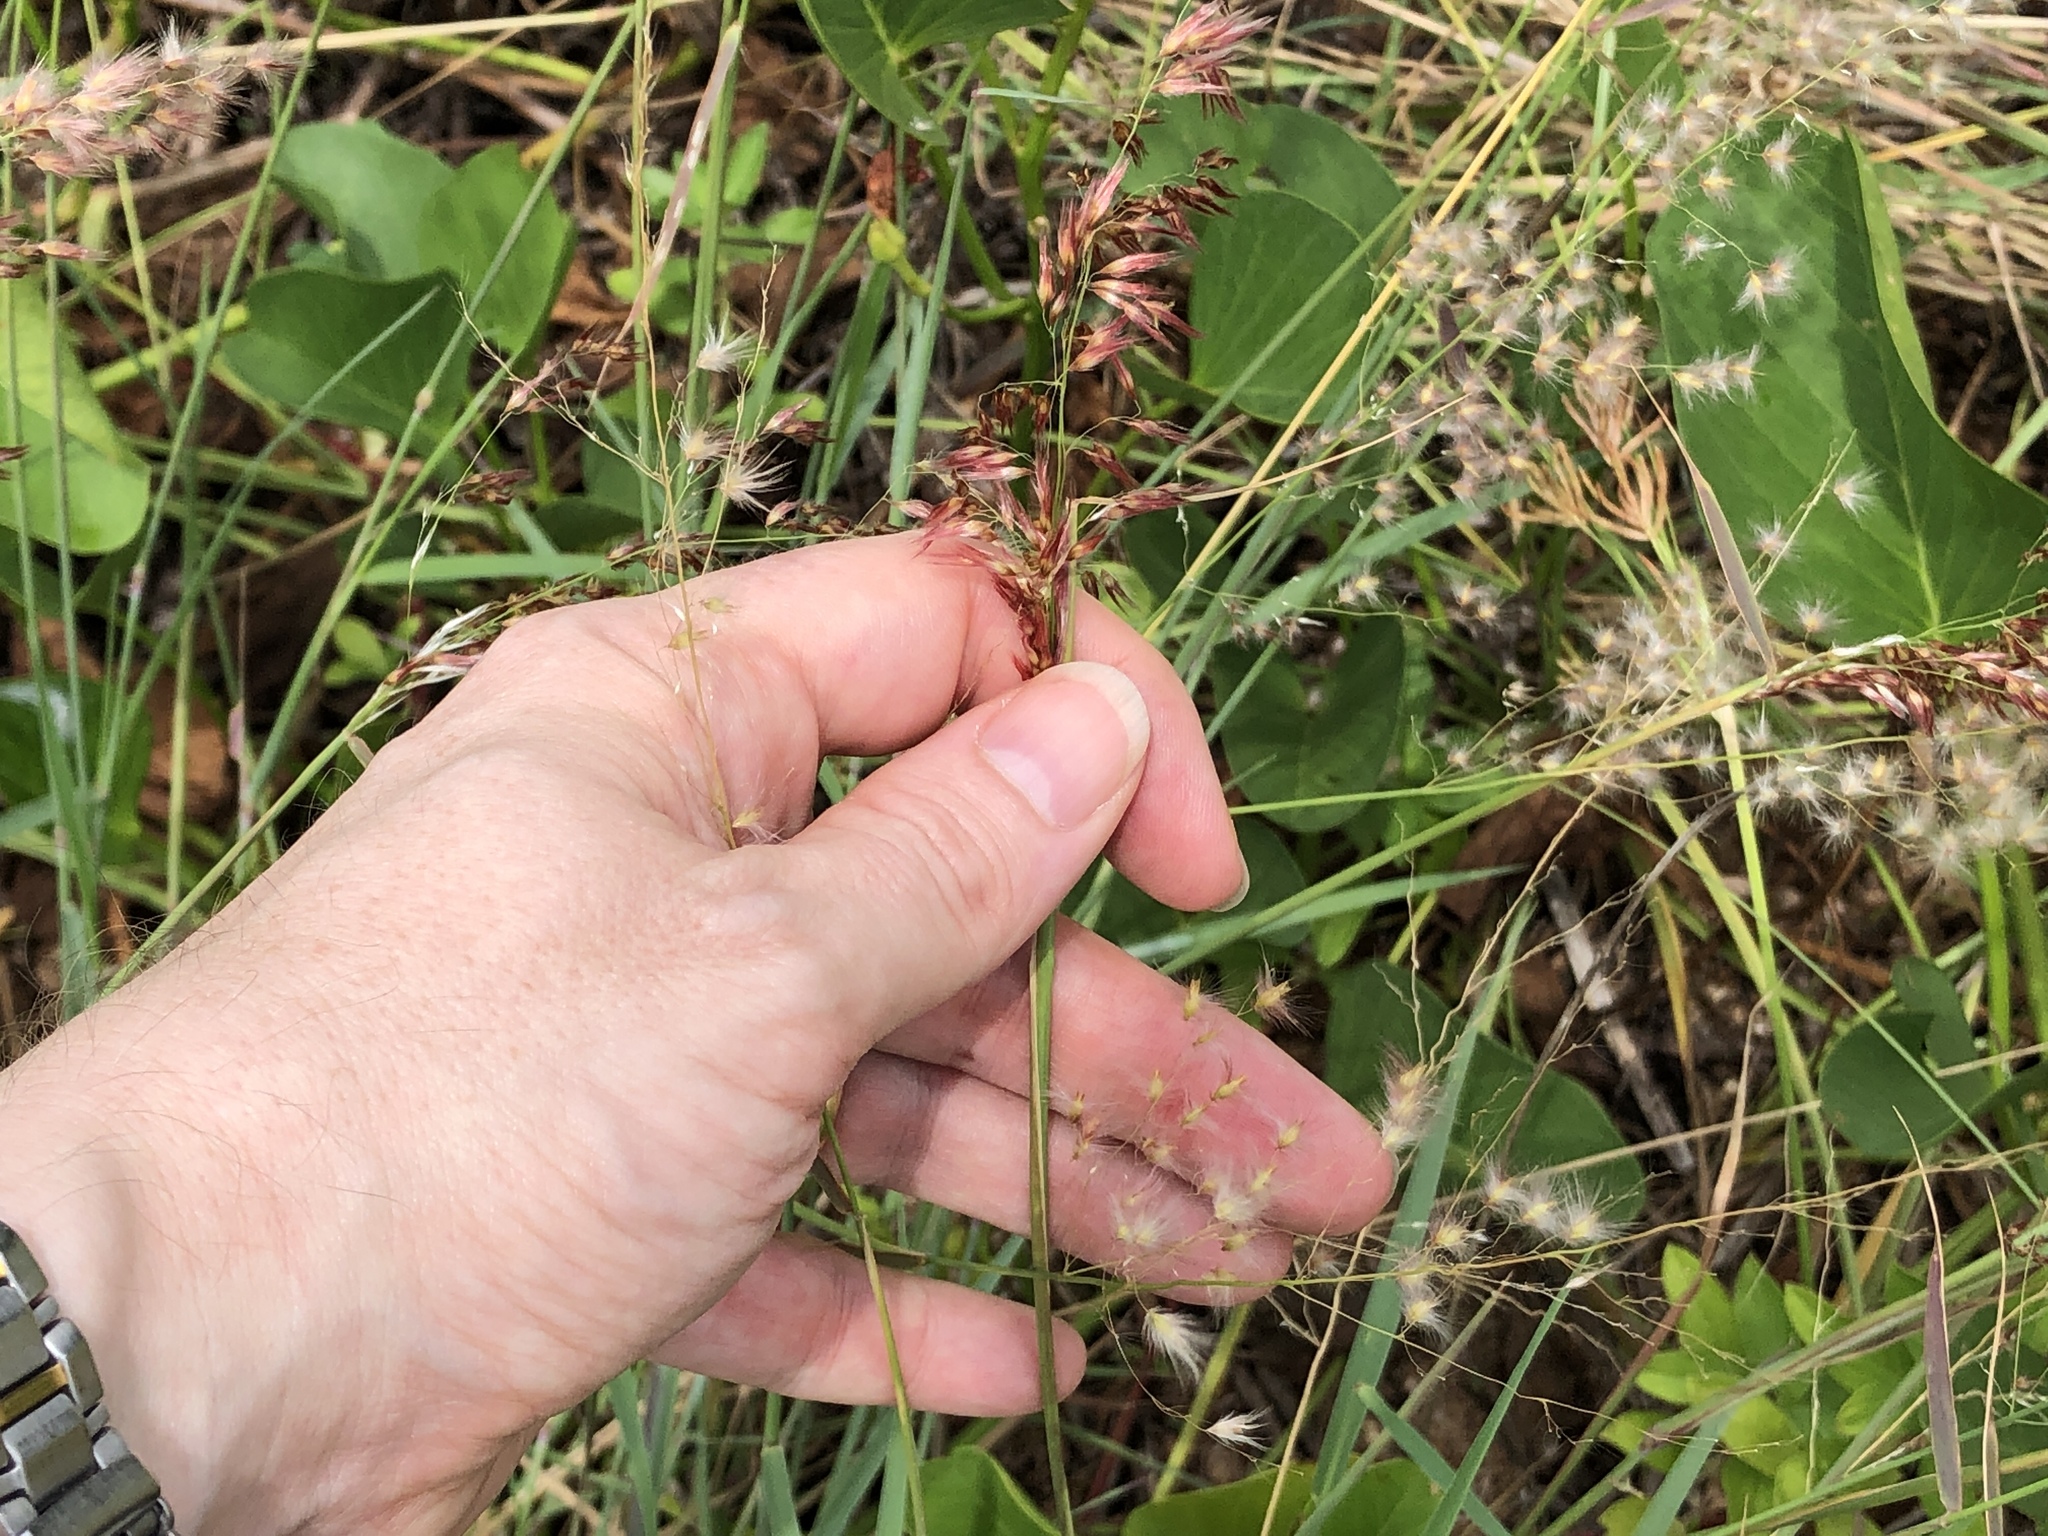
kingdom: Plantae
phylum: Tracheophyta
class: Liliopsida
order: Poales
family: Poaceae
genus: Melinis
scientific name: Melinis repens
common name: Rose natal grass
